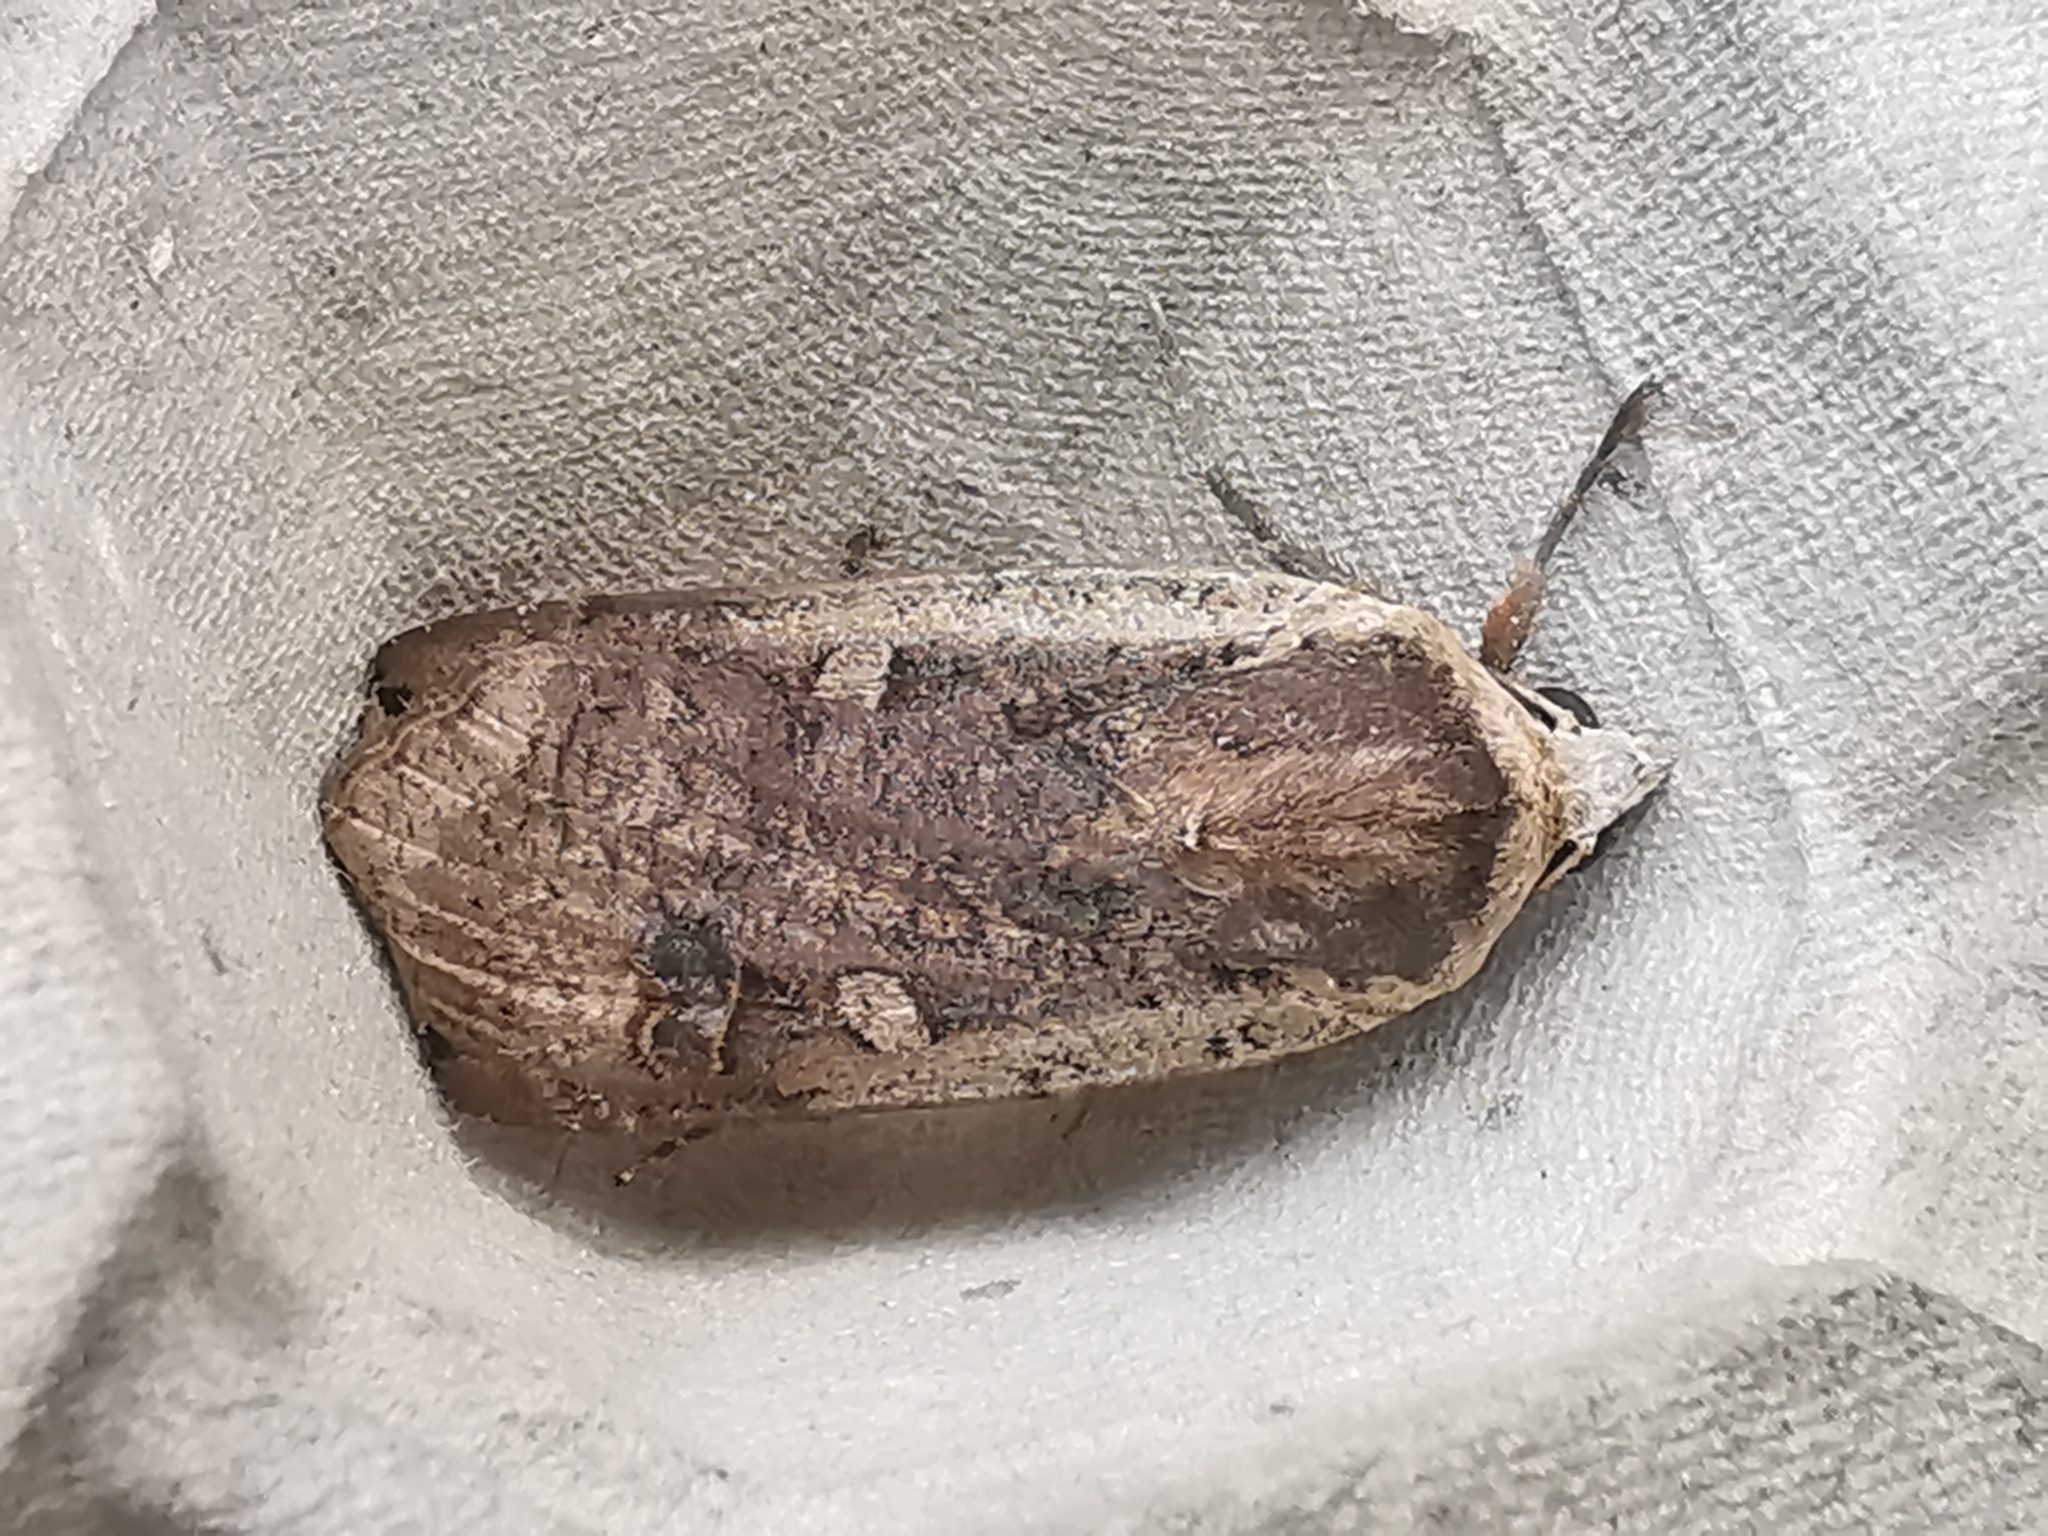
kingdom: Animalia
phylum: Arthropoda
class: Insecta
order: Lepidoptera
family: Noctuidae
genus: Noctua
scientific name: Noctua pronuba
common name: Large yellow underwing
